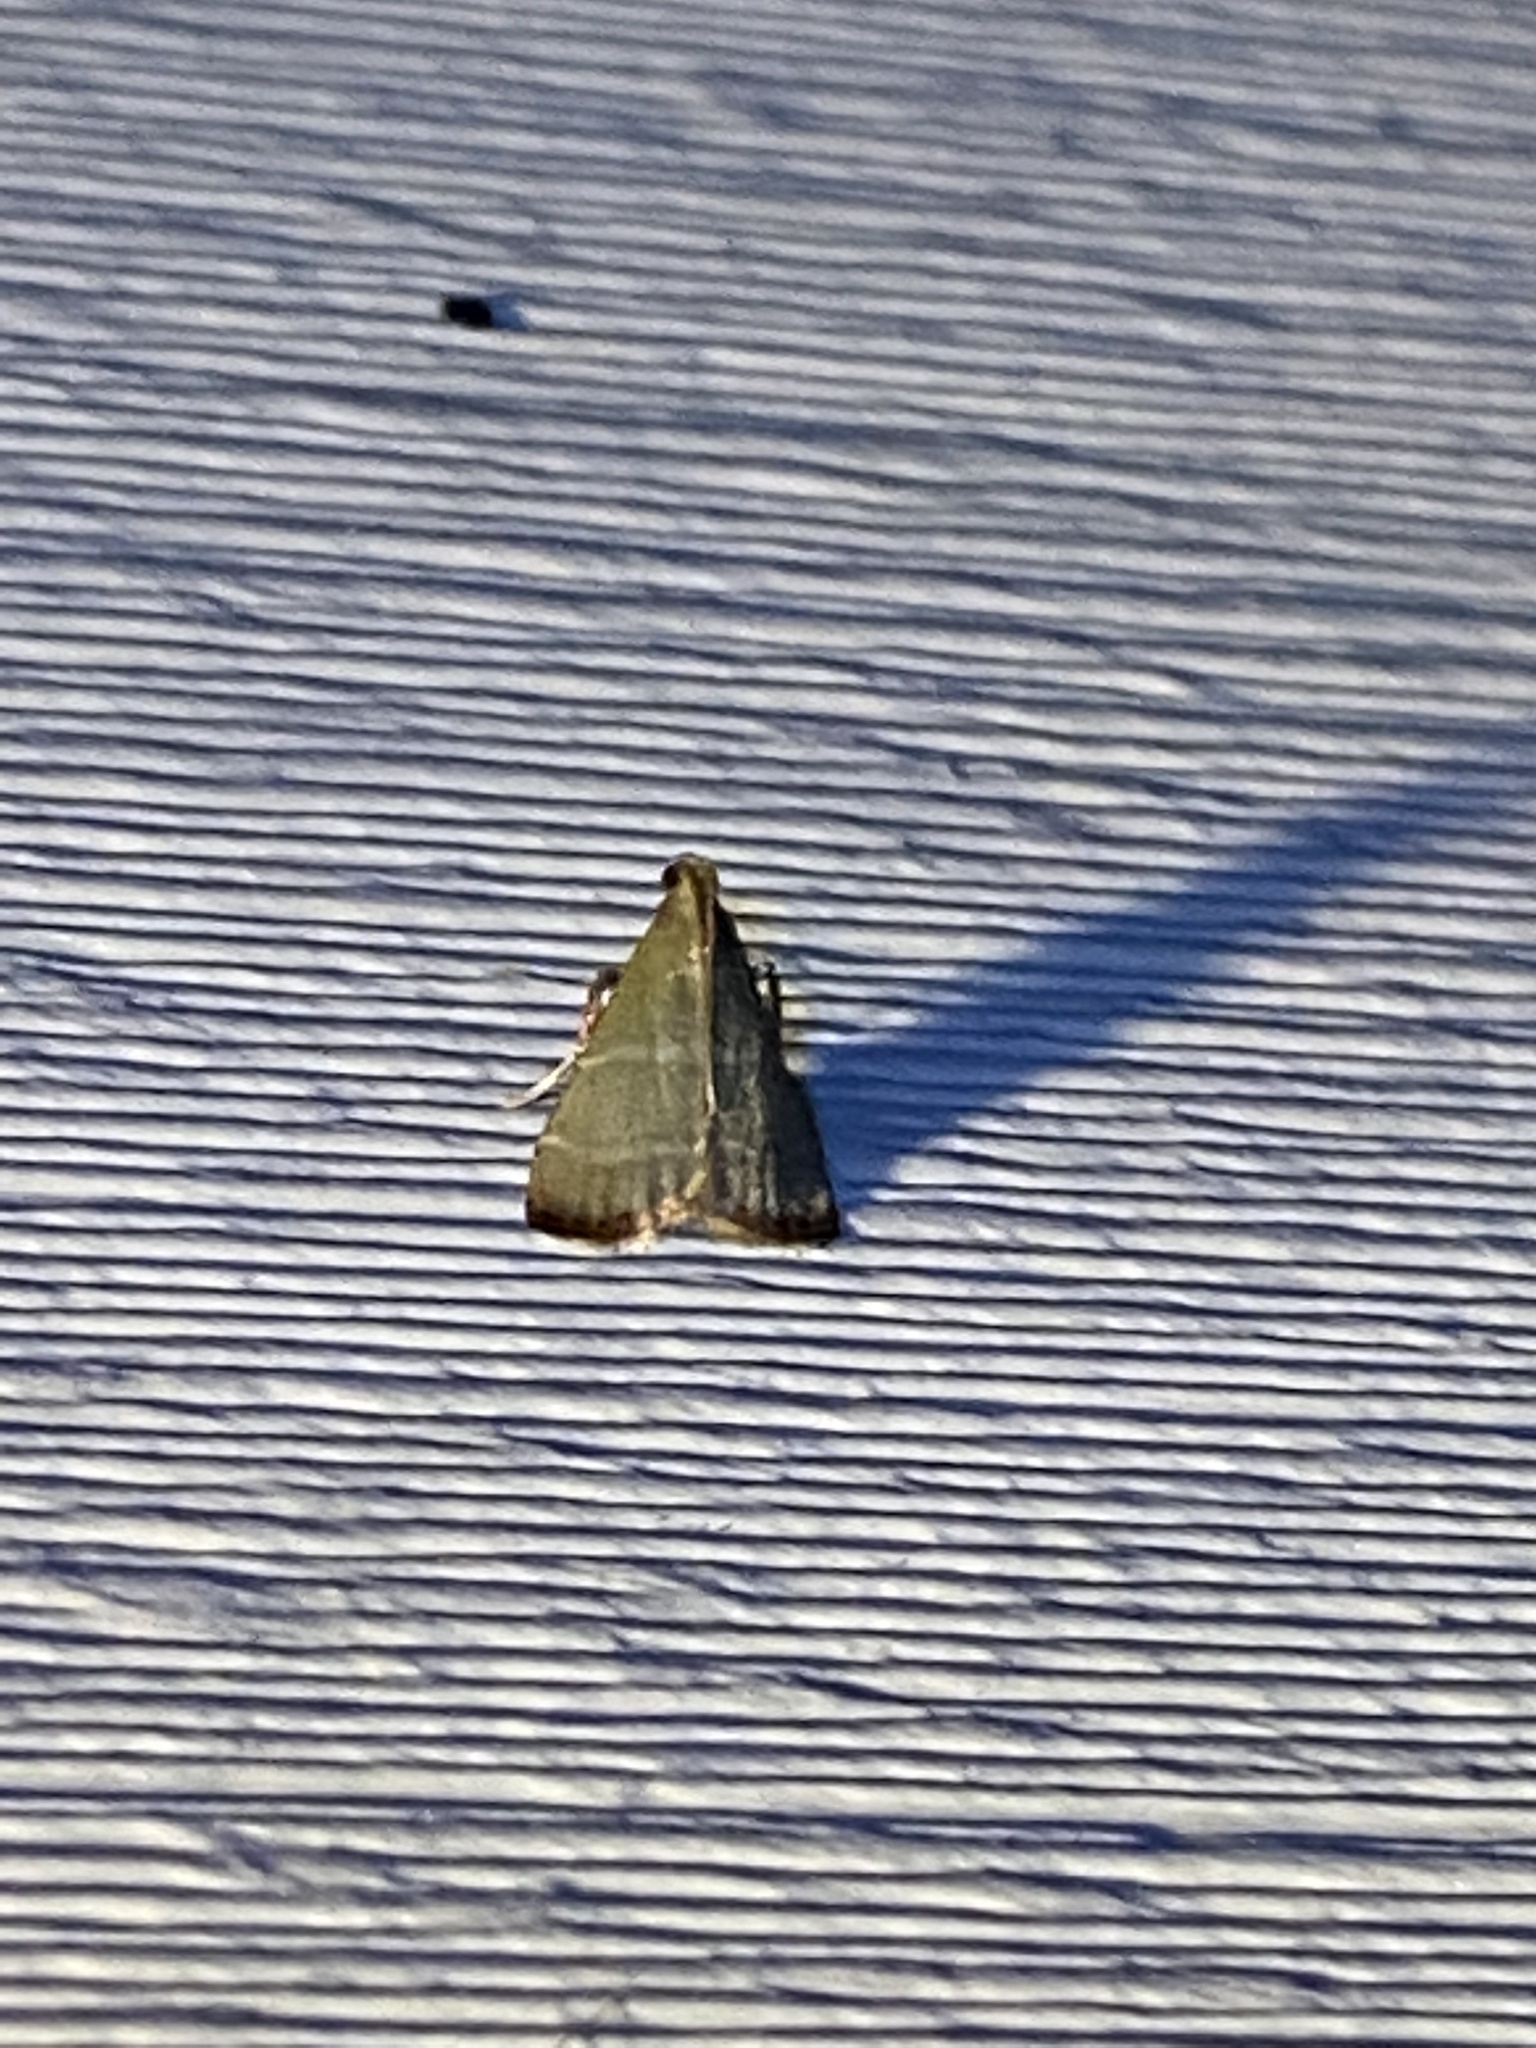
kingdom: Animalia
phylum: Arthropoda
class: Insecta
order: Lepidoptera
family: Pyralidae
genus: Arta
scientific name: Arta olivalis
